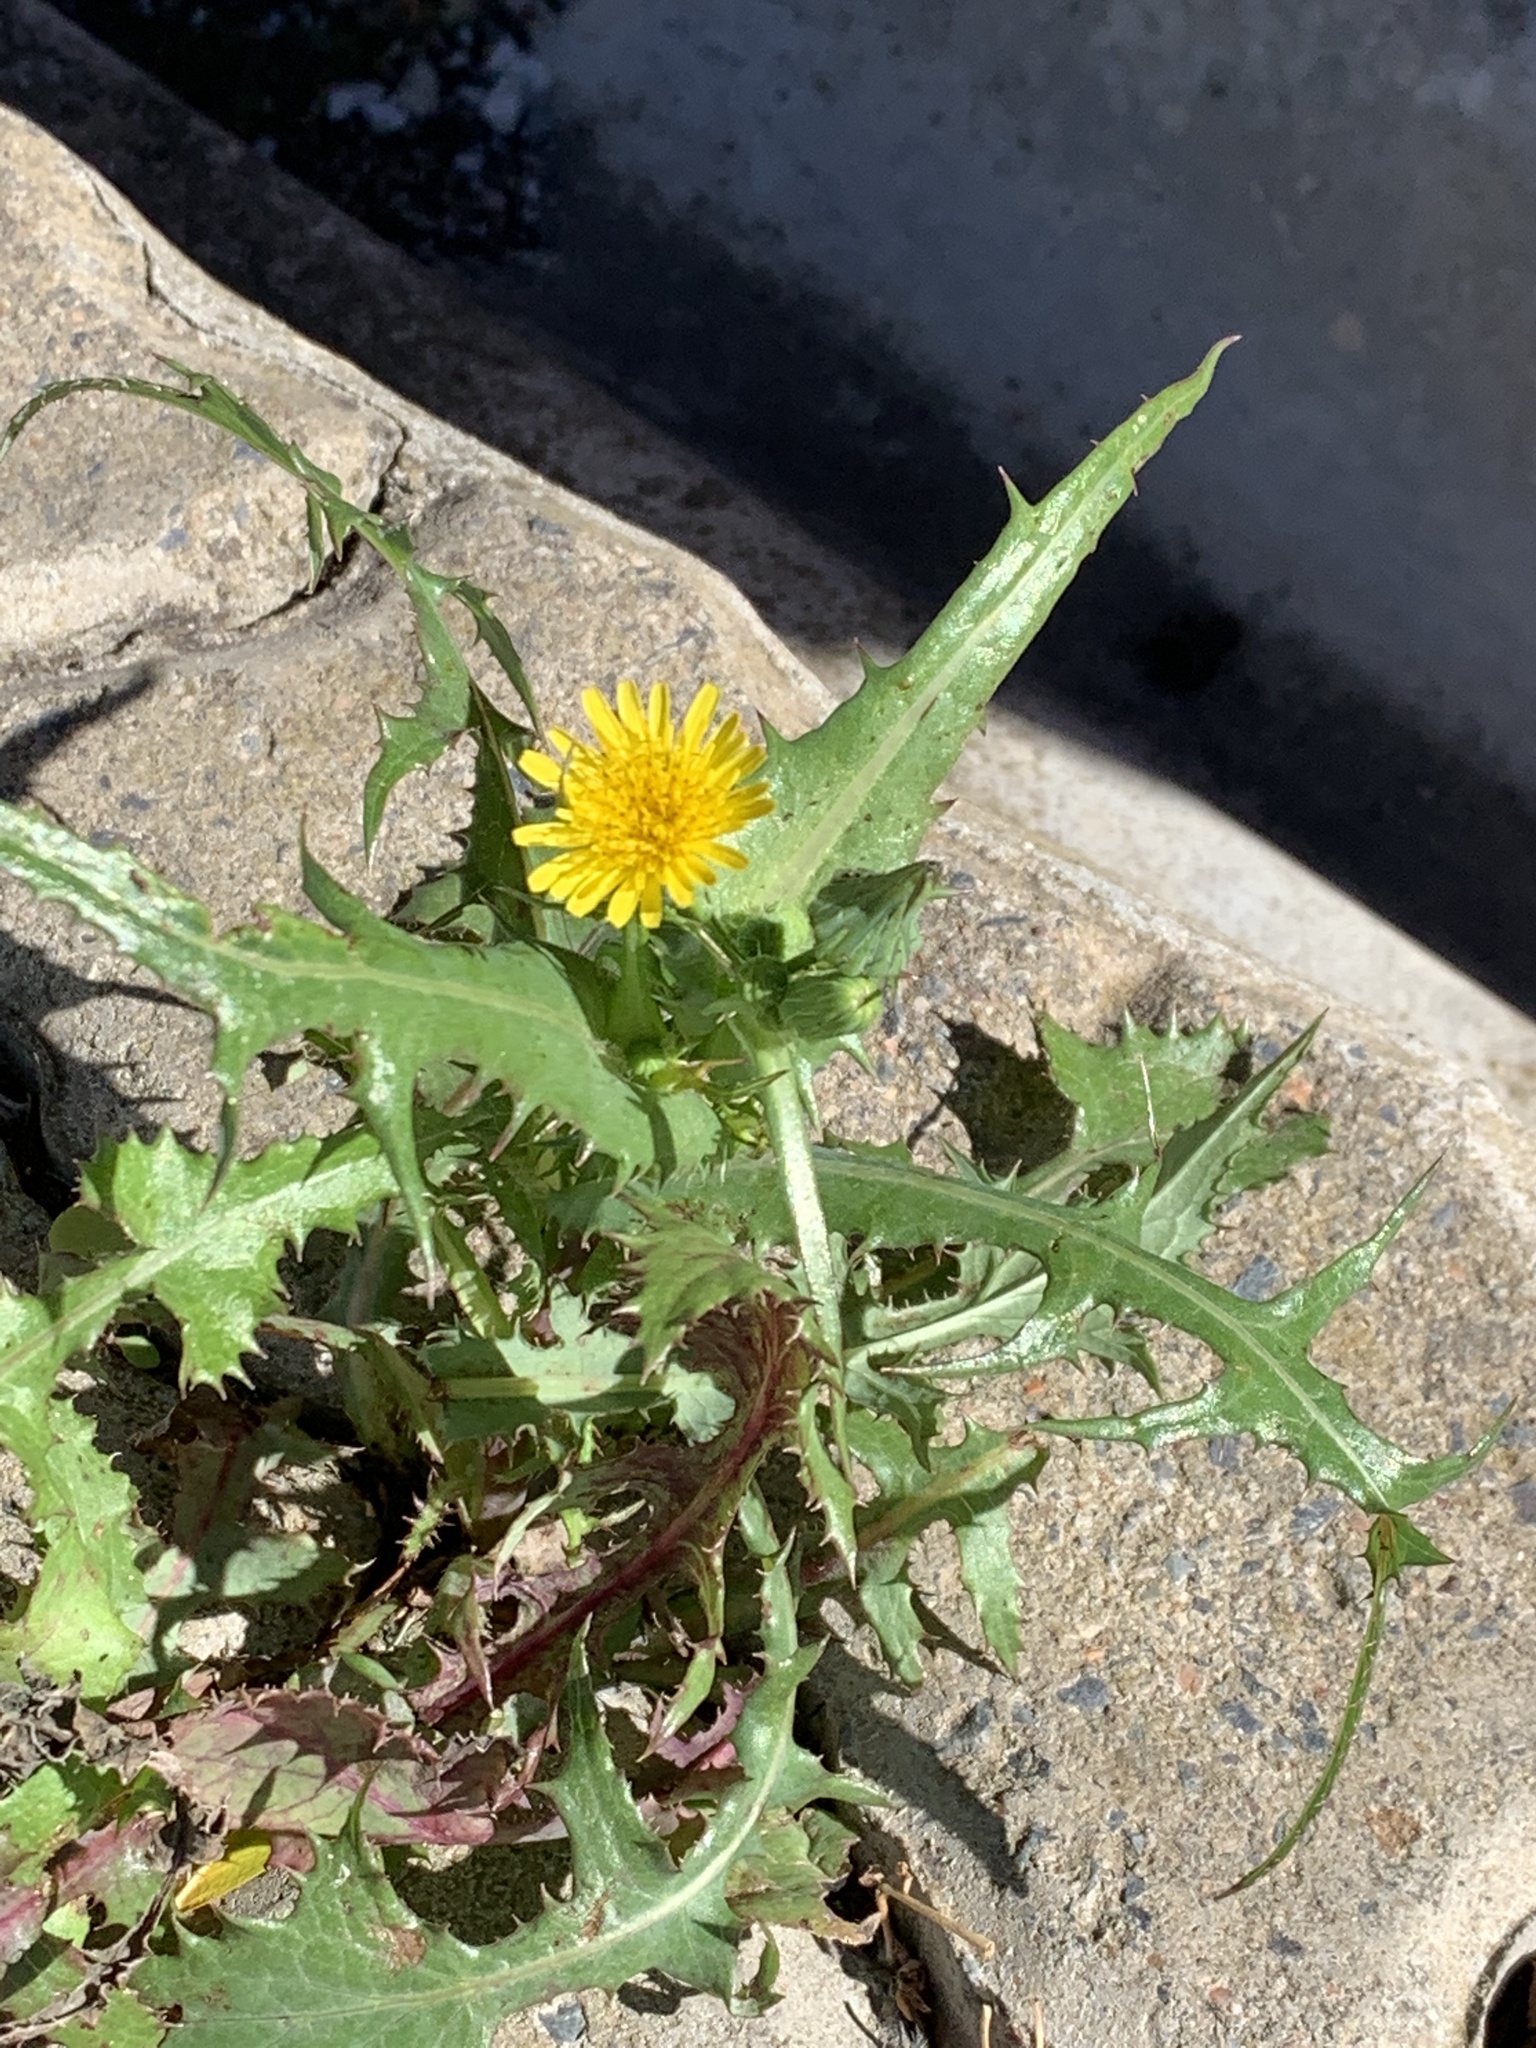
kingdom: Plantae
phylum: Tracheophyta
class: Magnoliopsida
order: Asterales
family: Asteraceae
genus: Sonchus
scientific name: Sonchus asper
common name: Prickly sow-thistle
